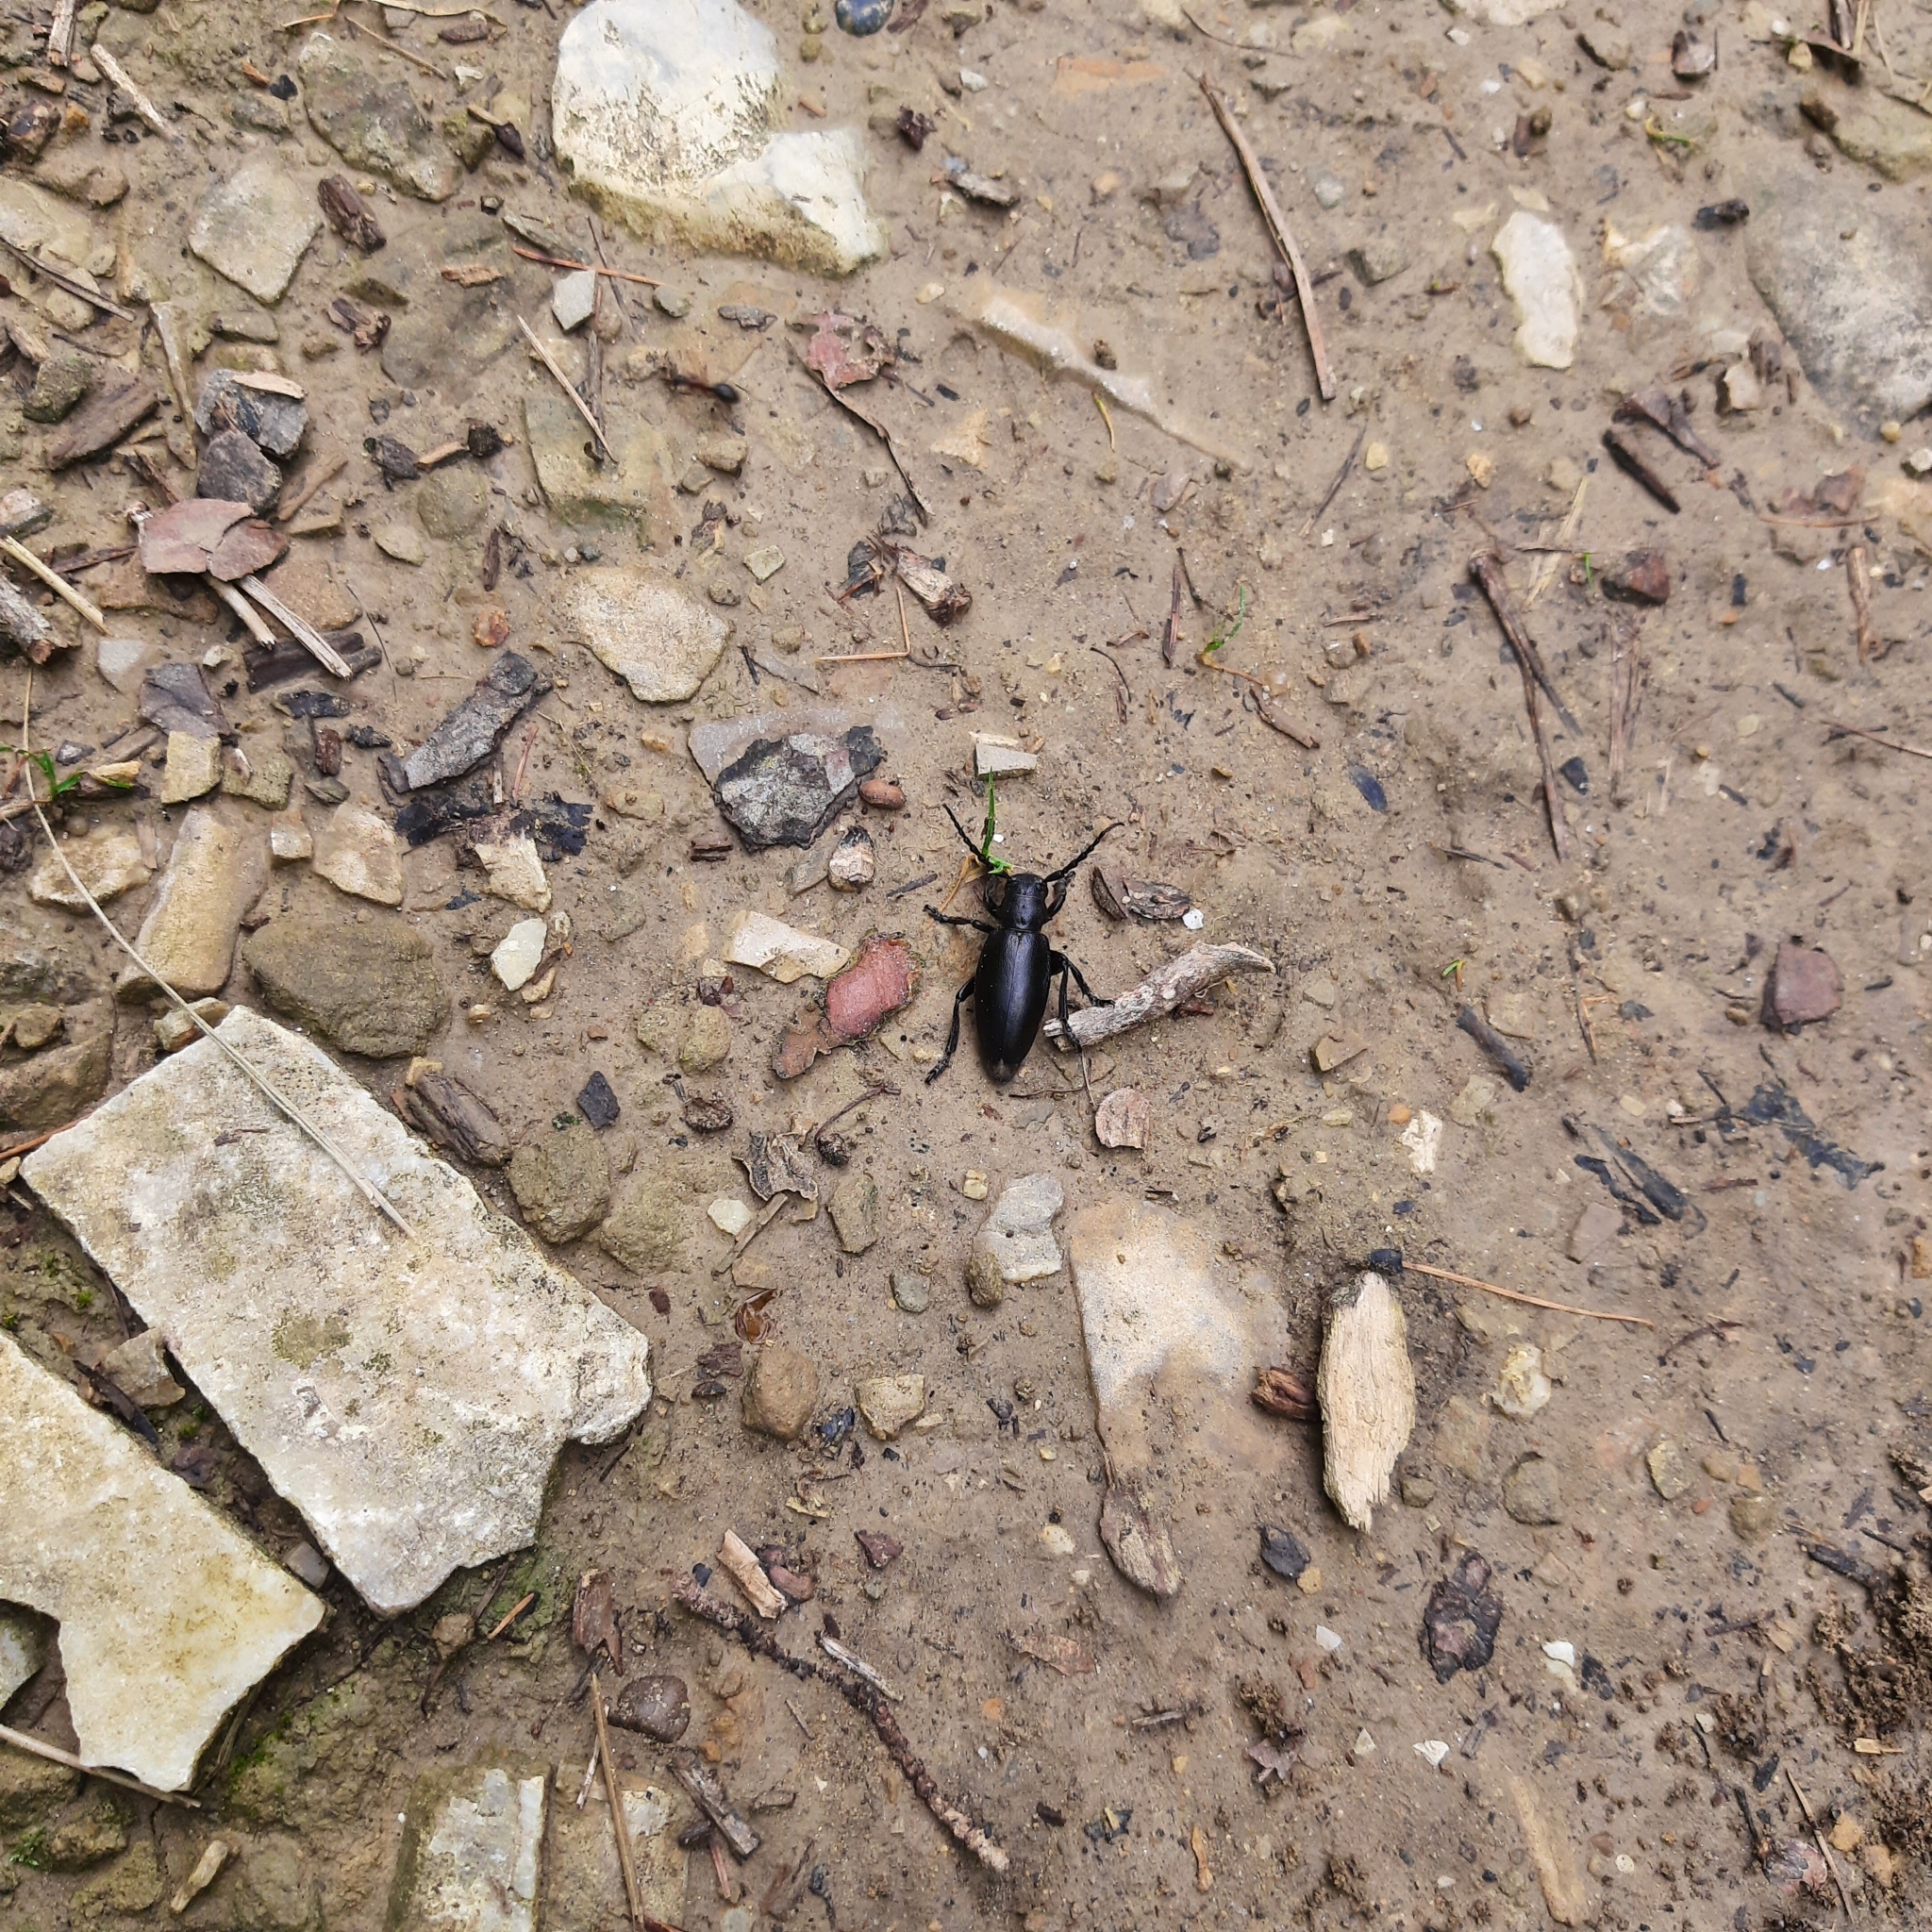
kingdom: Animalia
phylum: Arthropoda
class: Insecta
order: Coleoptera
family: Cerambycidae
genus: Dorcadion
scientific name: Dorcadion aethiops
